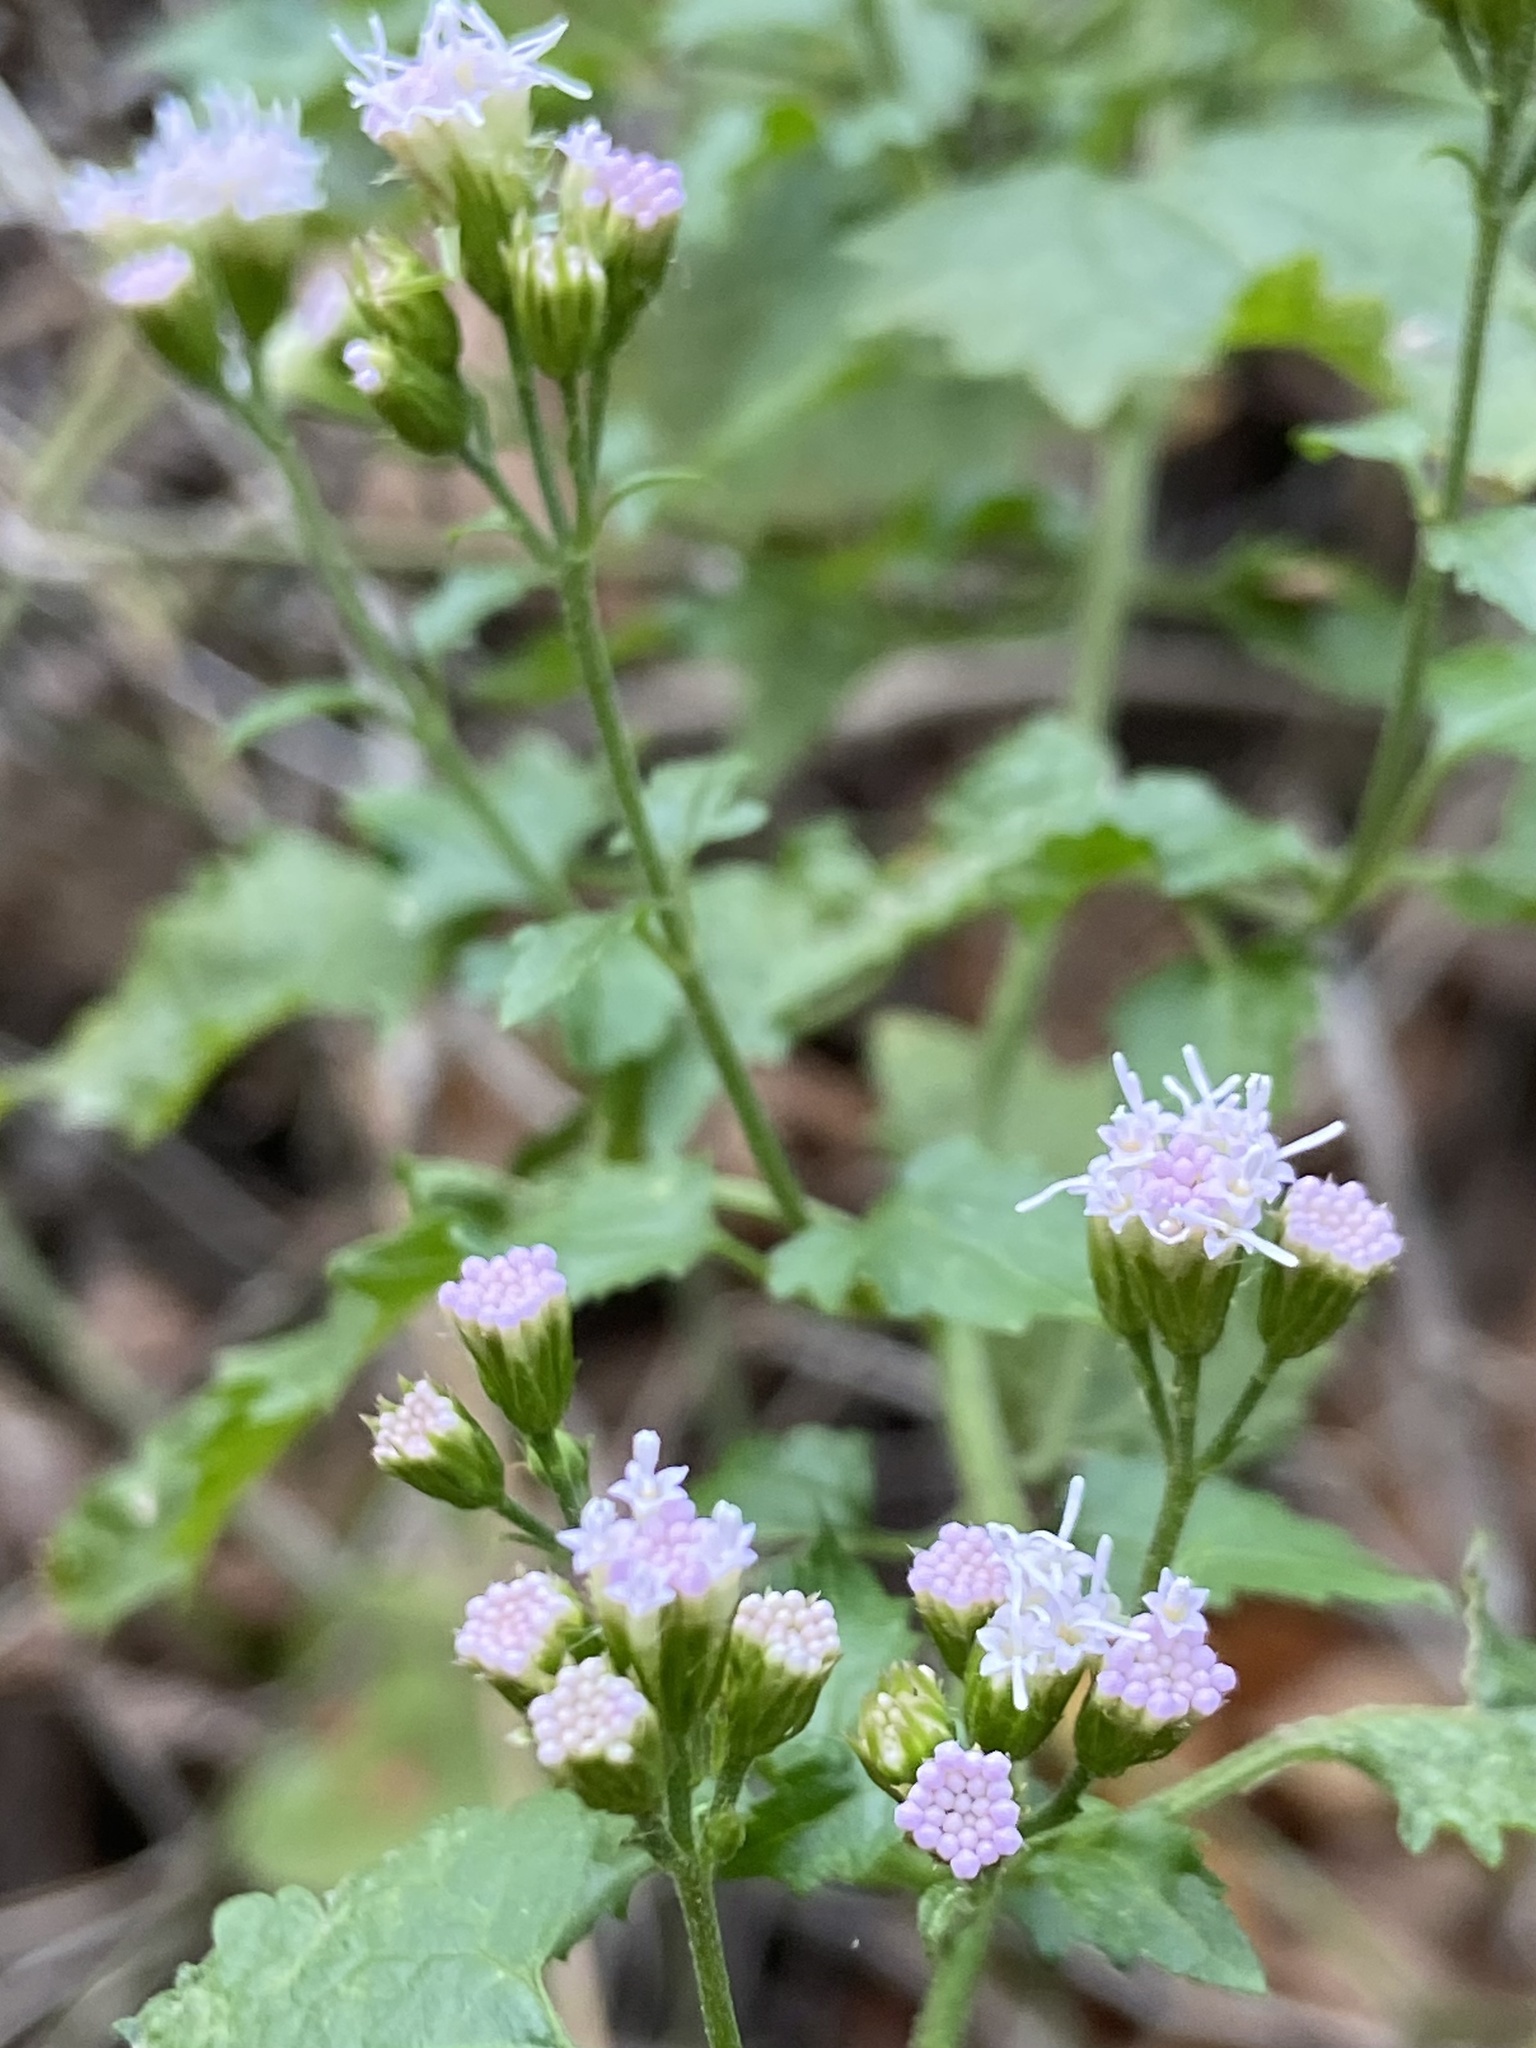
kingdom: Plantae
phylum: Tracheophyta
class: Magnoliopsida
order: Asterales
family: Asteraceae
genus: Fleischmannia
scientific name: Fleischmannia incarnata
